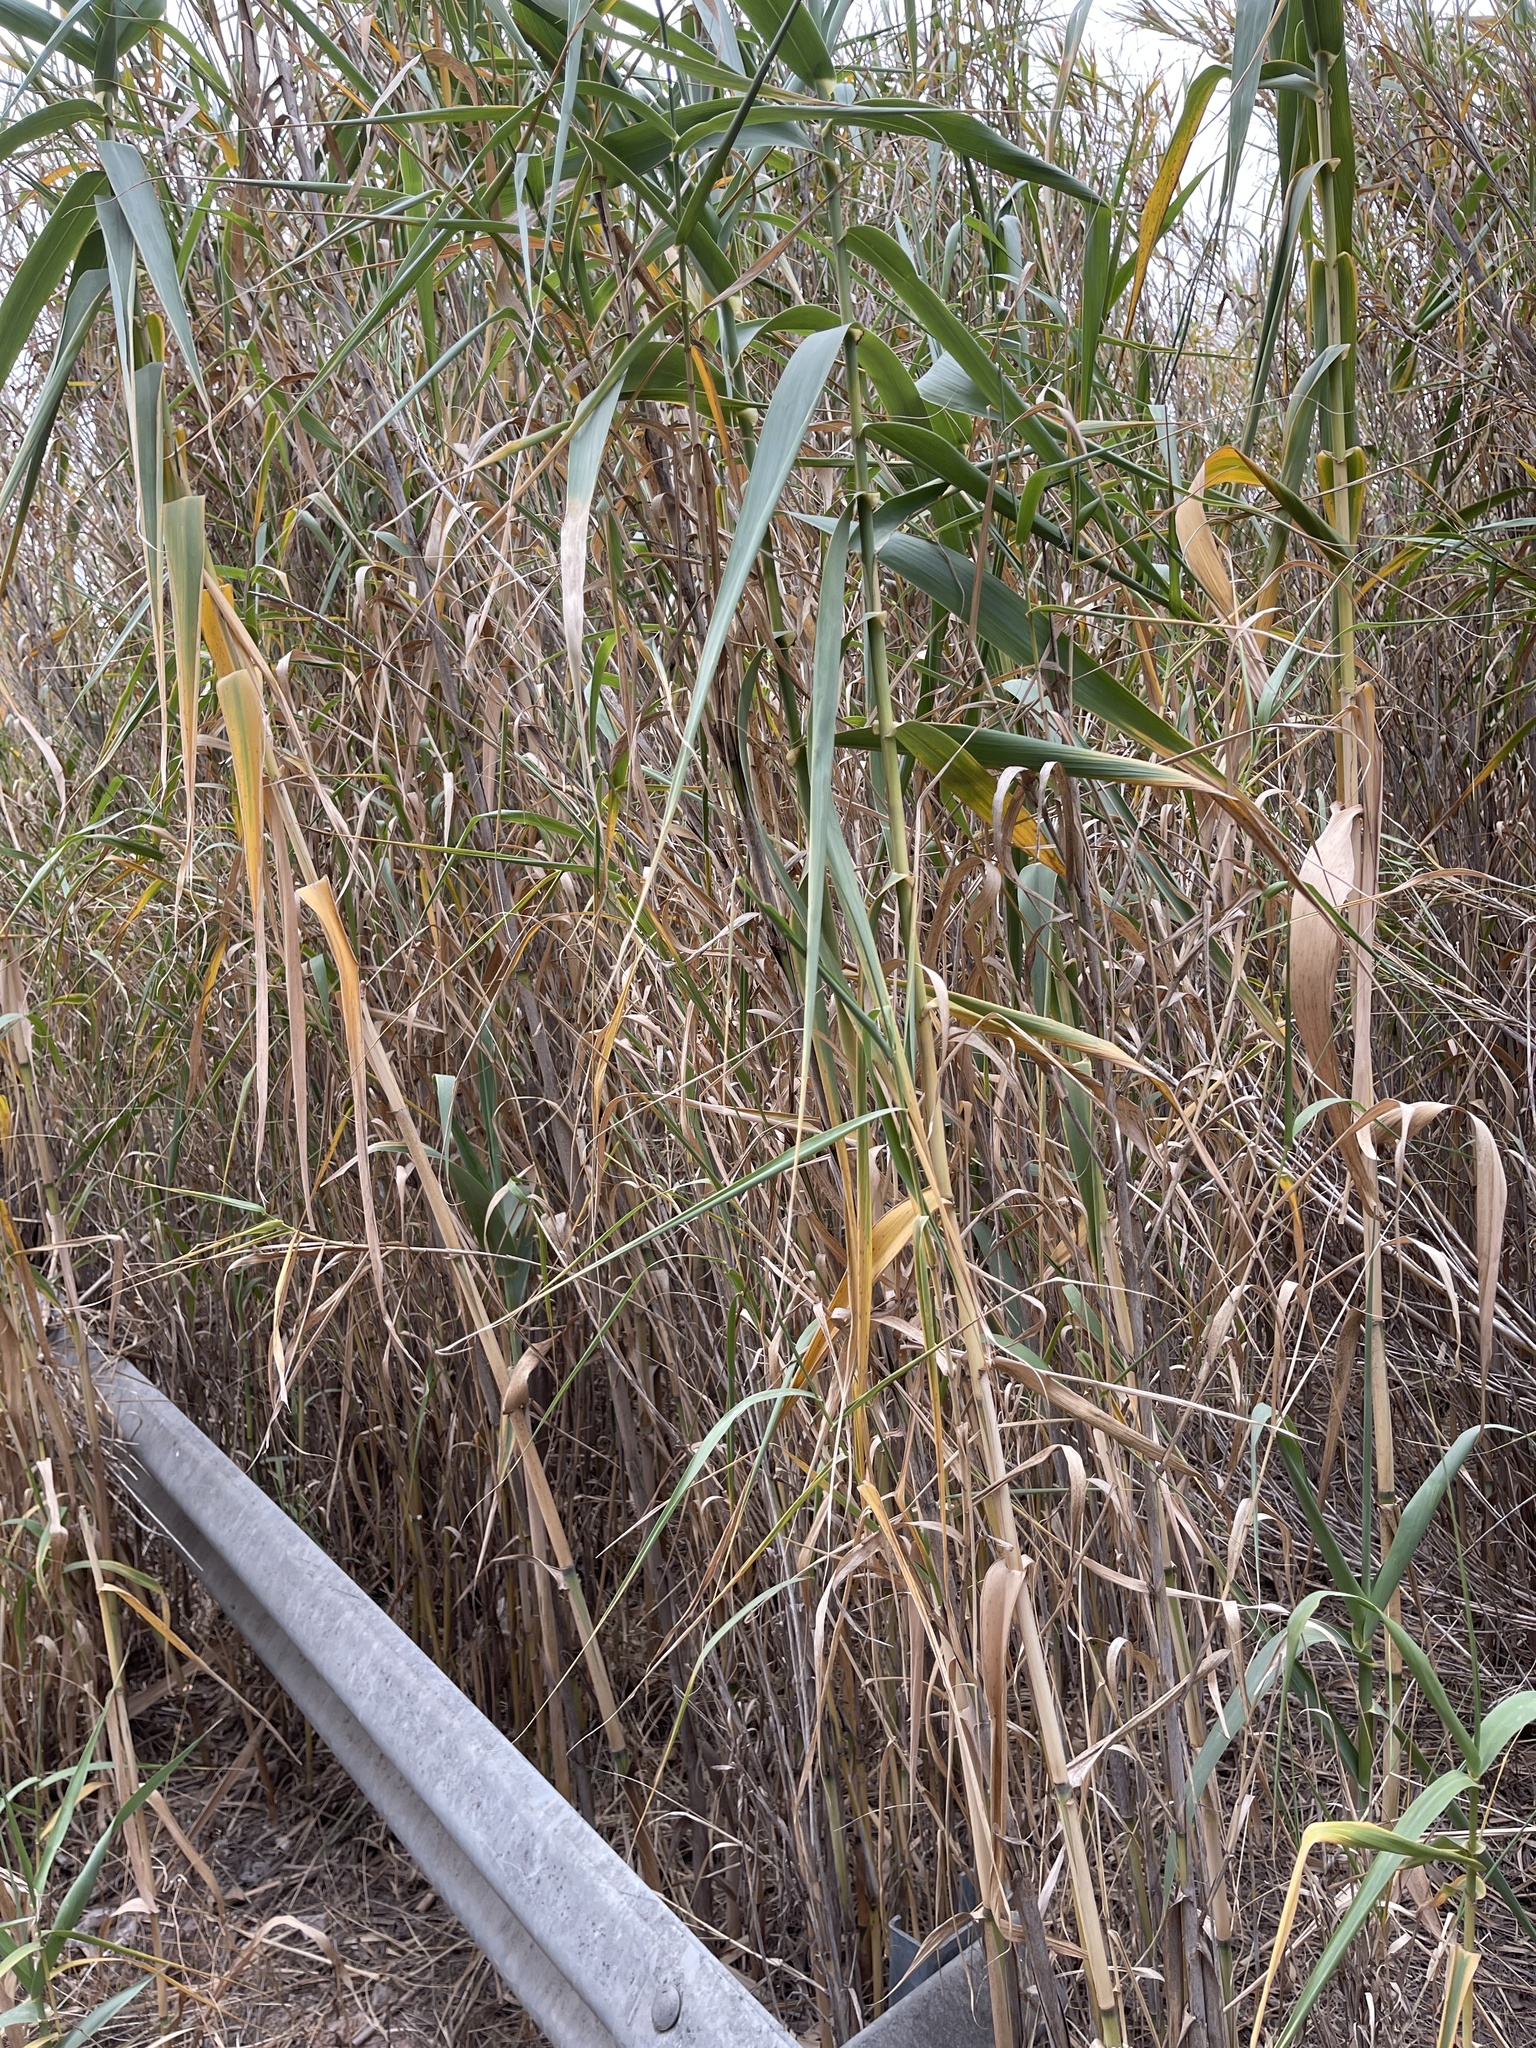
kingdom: Plantae
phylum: Tracheophyta
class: Liliopsida
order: Poales
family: Poaceae
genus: Arundo
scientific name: Arundo donax
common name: Giant reed
